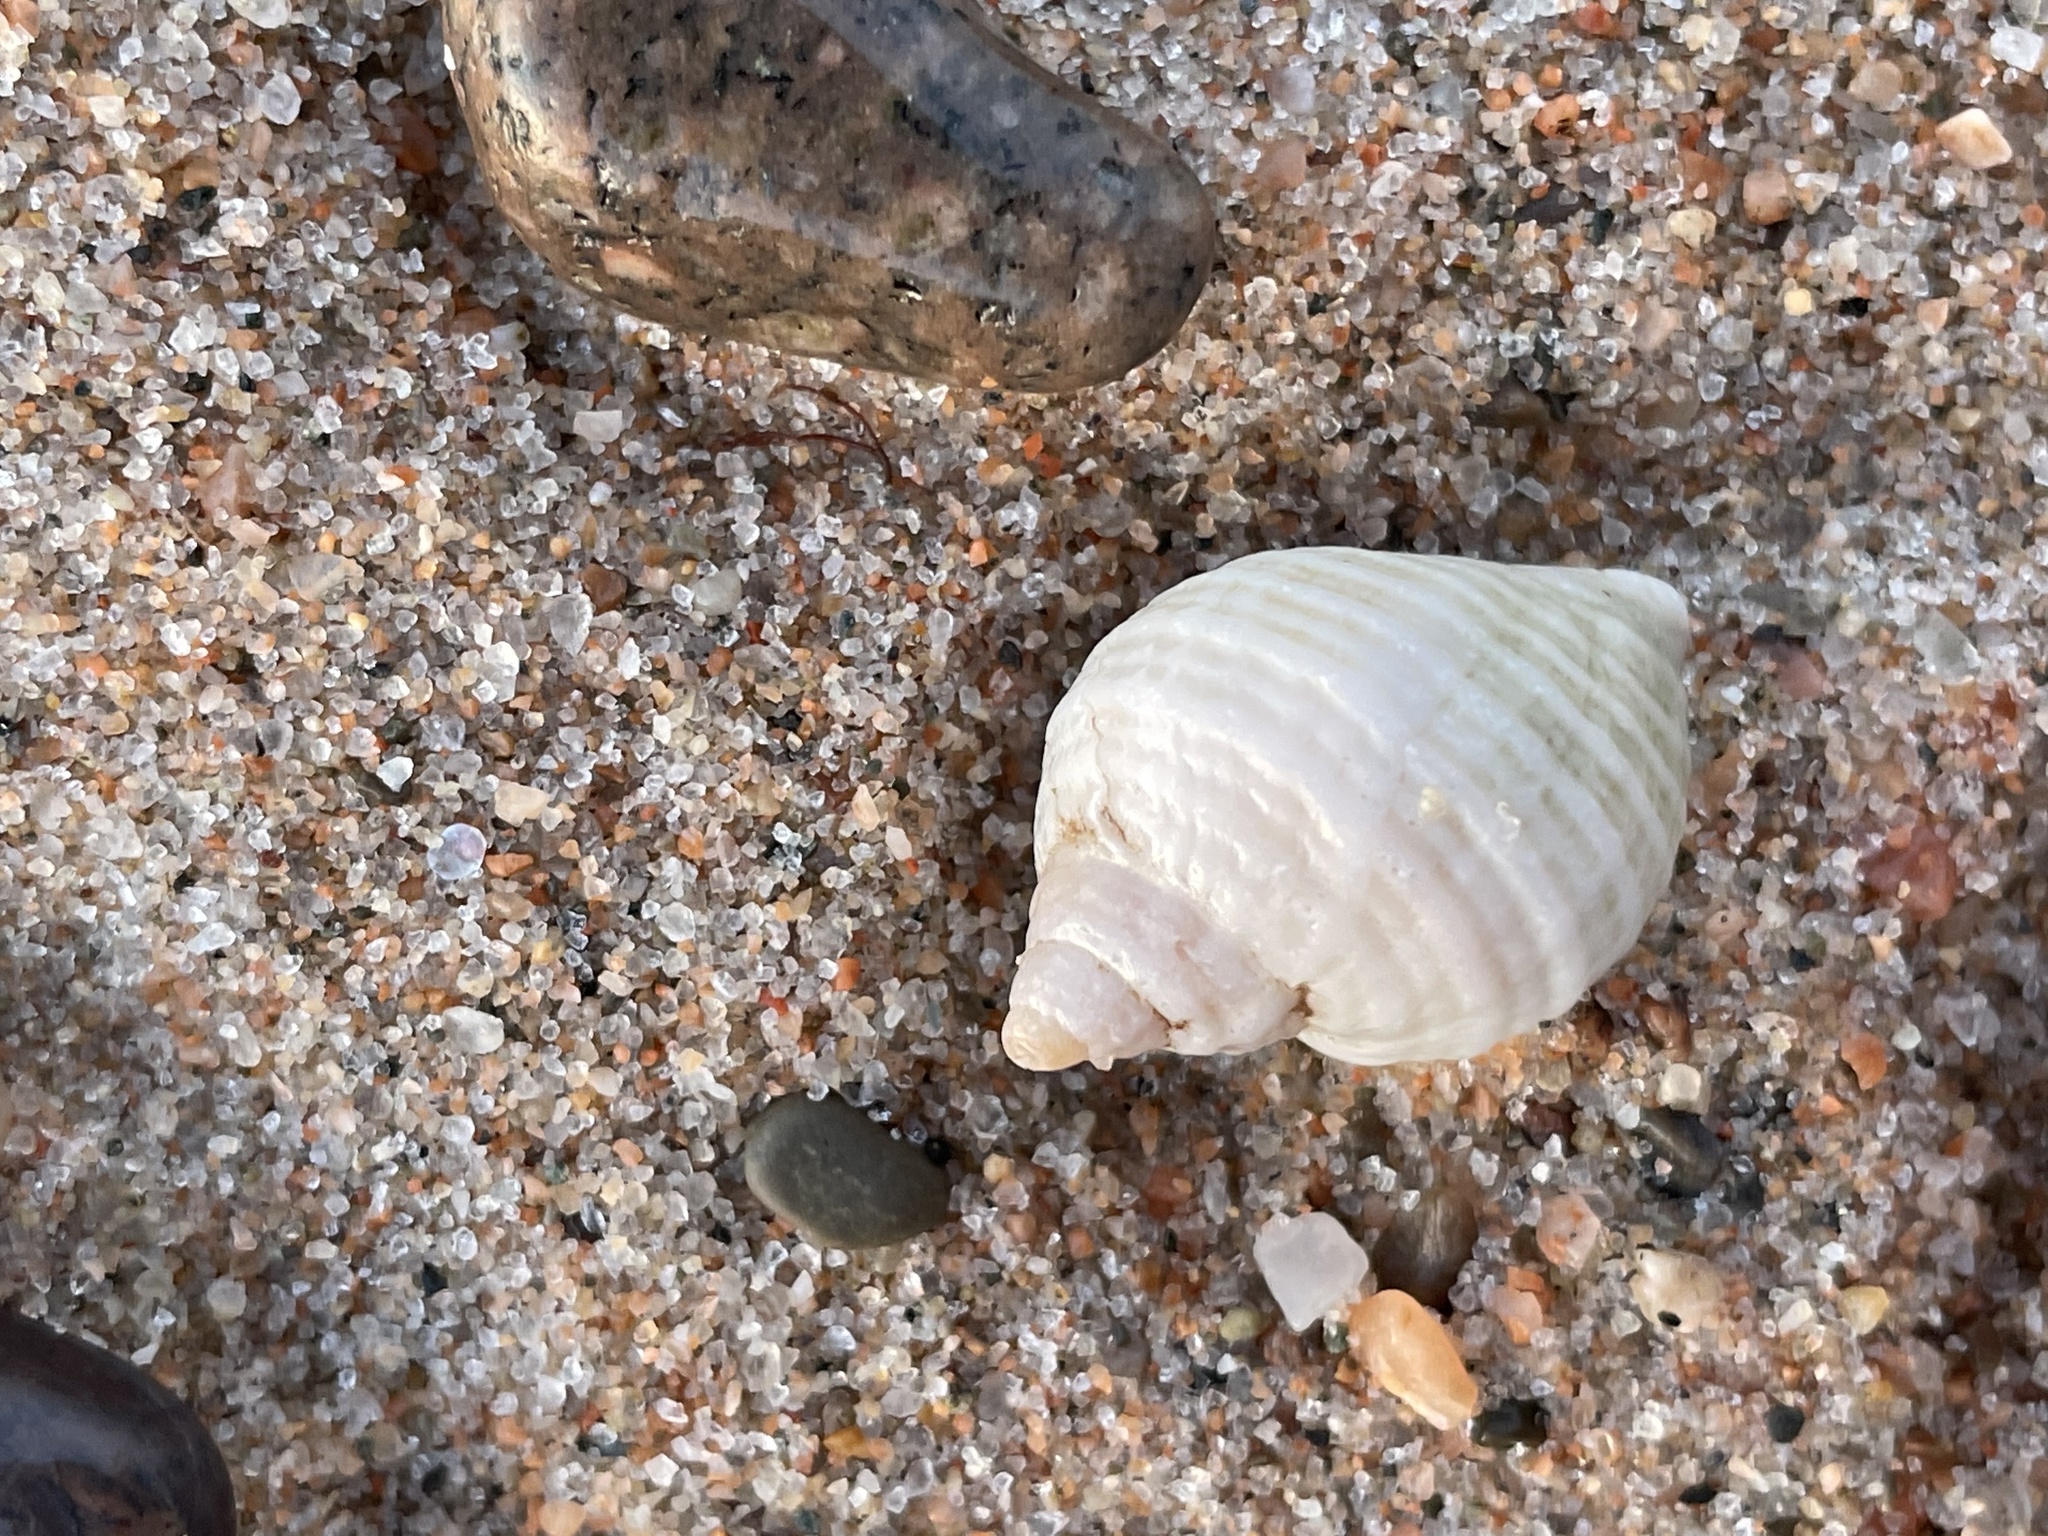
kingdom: Animalia
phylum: Mollusca
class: Gastropoda
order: Neogastropoda
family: Muricidae
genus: Nucella
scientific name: Nucella lapillus
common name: Dog whelk
